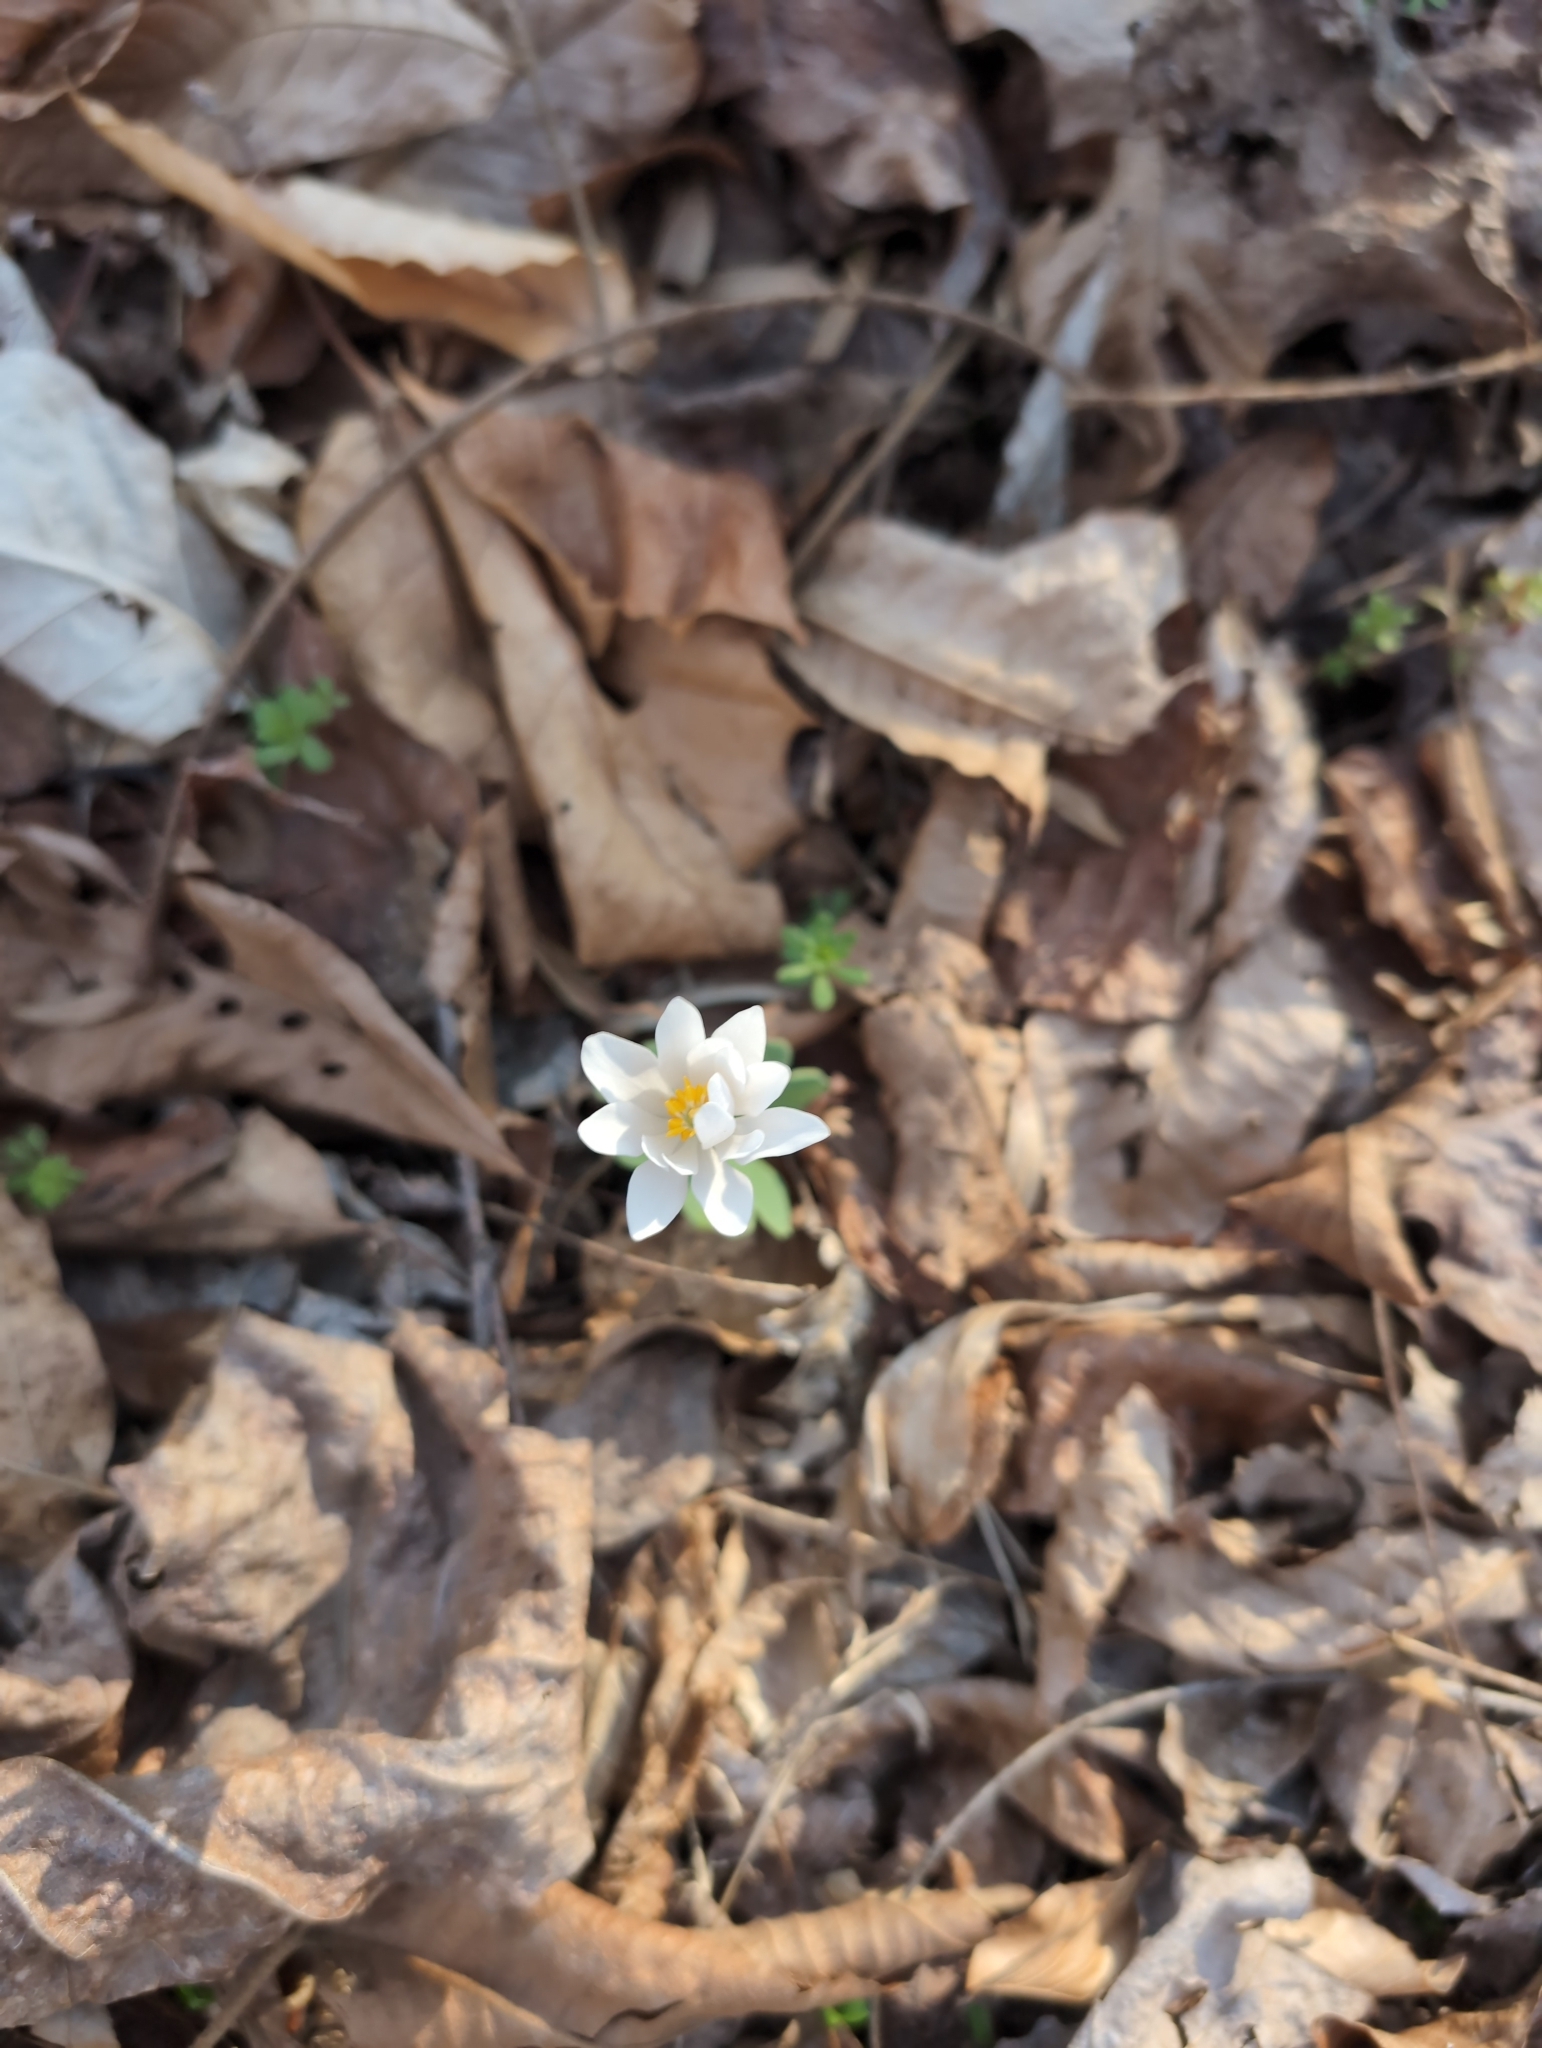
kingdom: Plantae
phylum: Tracheophyta
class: Magnoliopsida
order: Ranunculales
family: Papaveraceae
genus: Sanguinaria
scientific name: Sanguinaria canadensis
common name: Bloodroot
